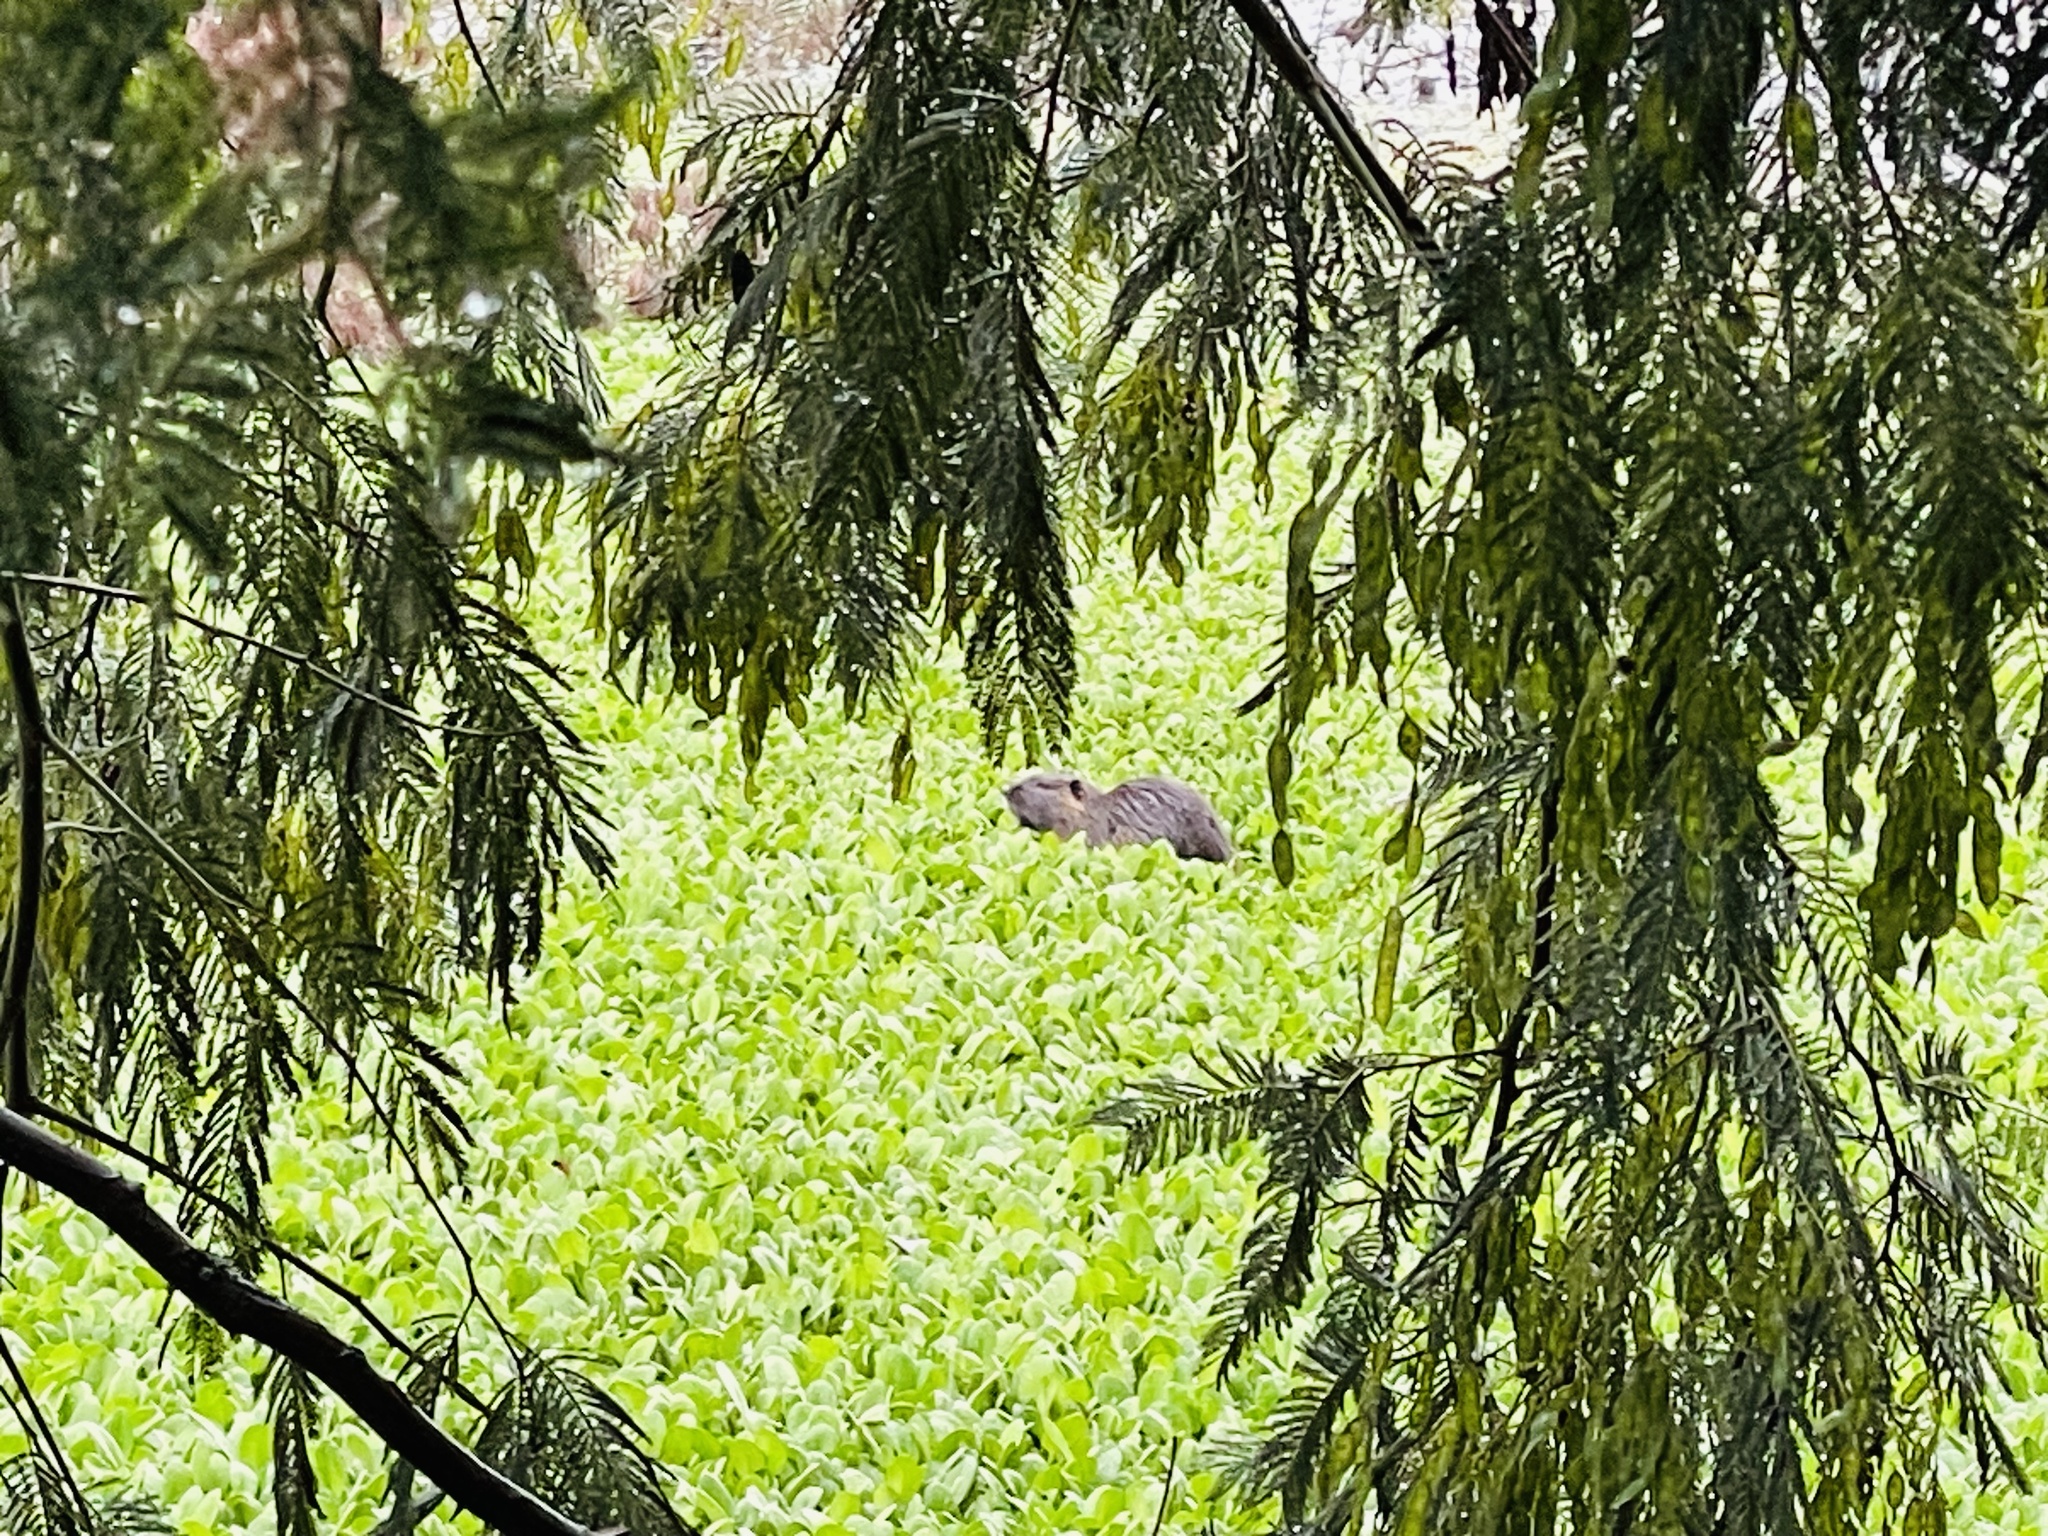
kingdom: Animalia
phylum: Chordata
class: Mammalia
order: Rodentia
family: Myocastoridae
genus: Myocastor
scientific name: Myocastor coypus
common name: Coypu
